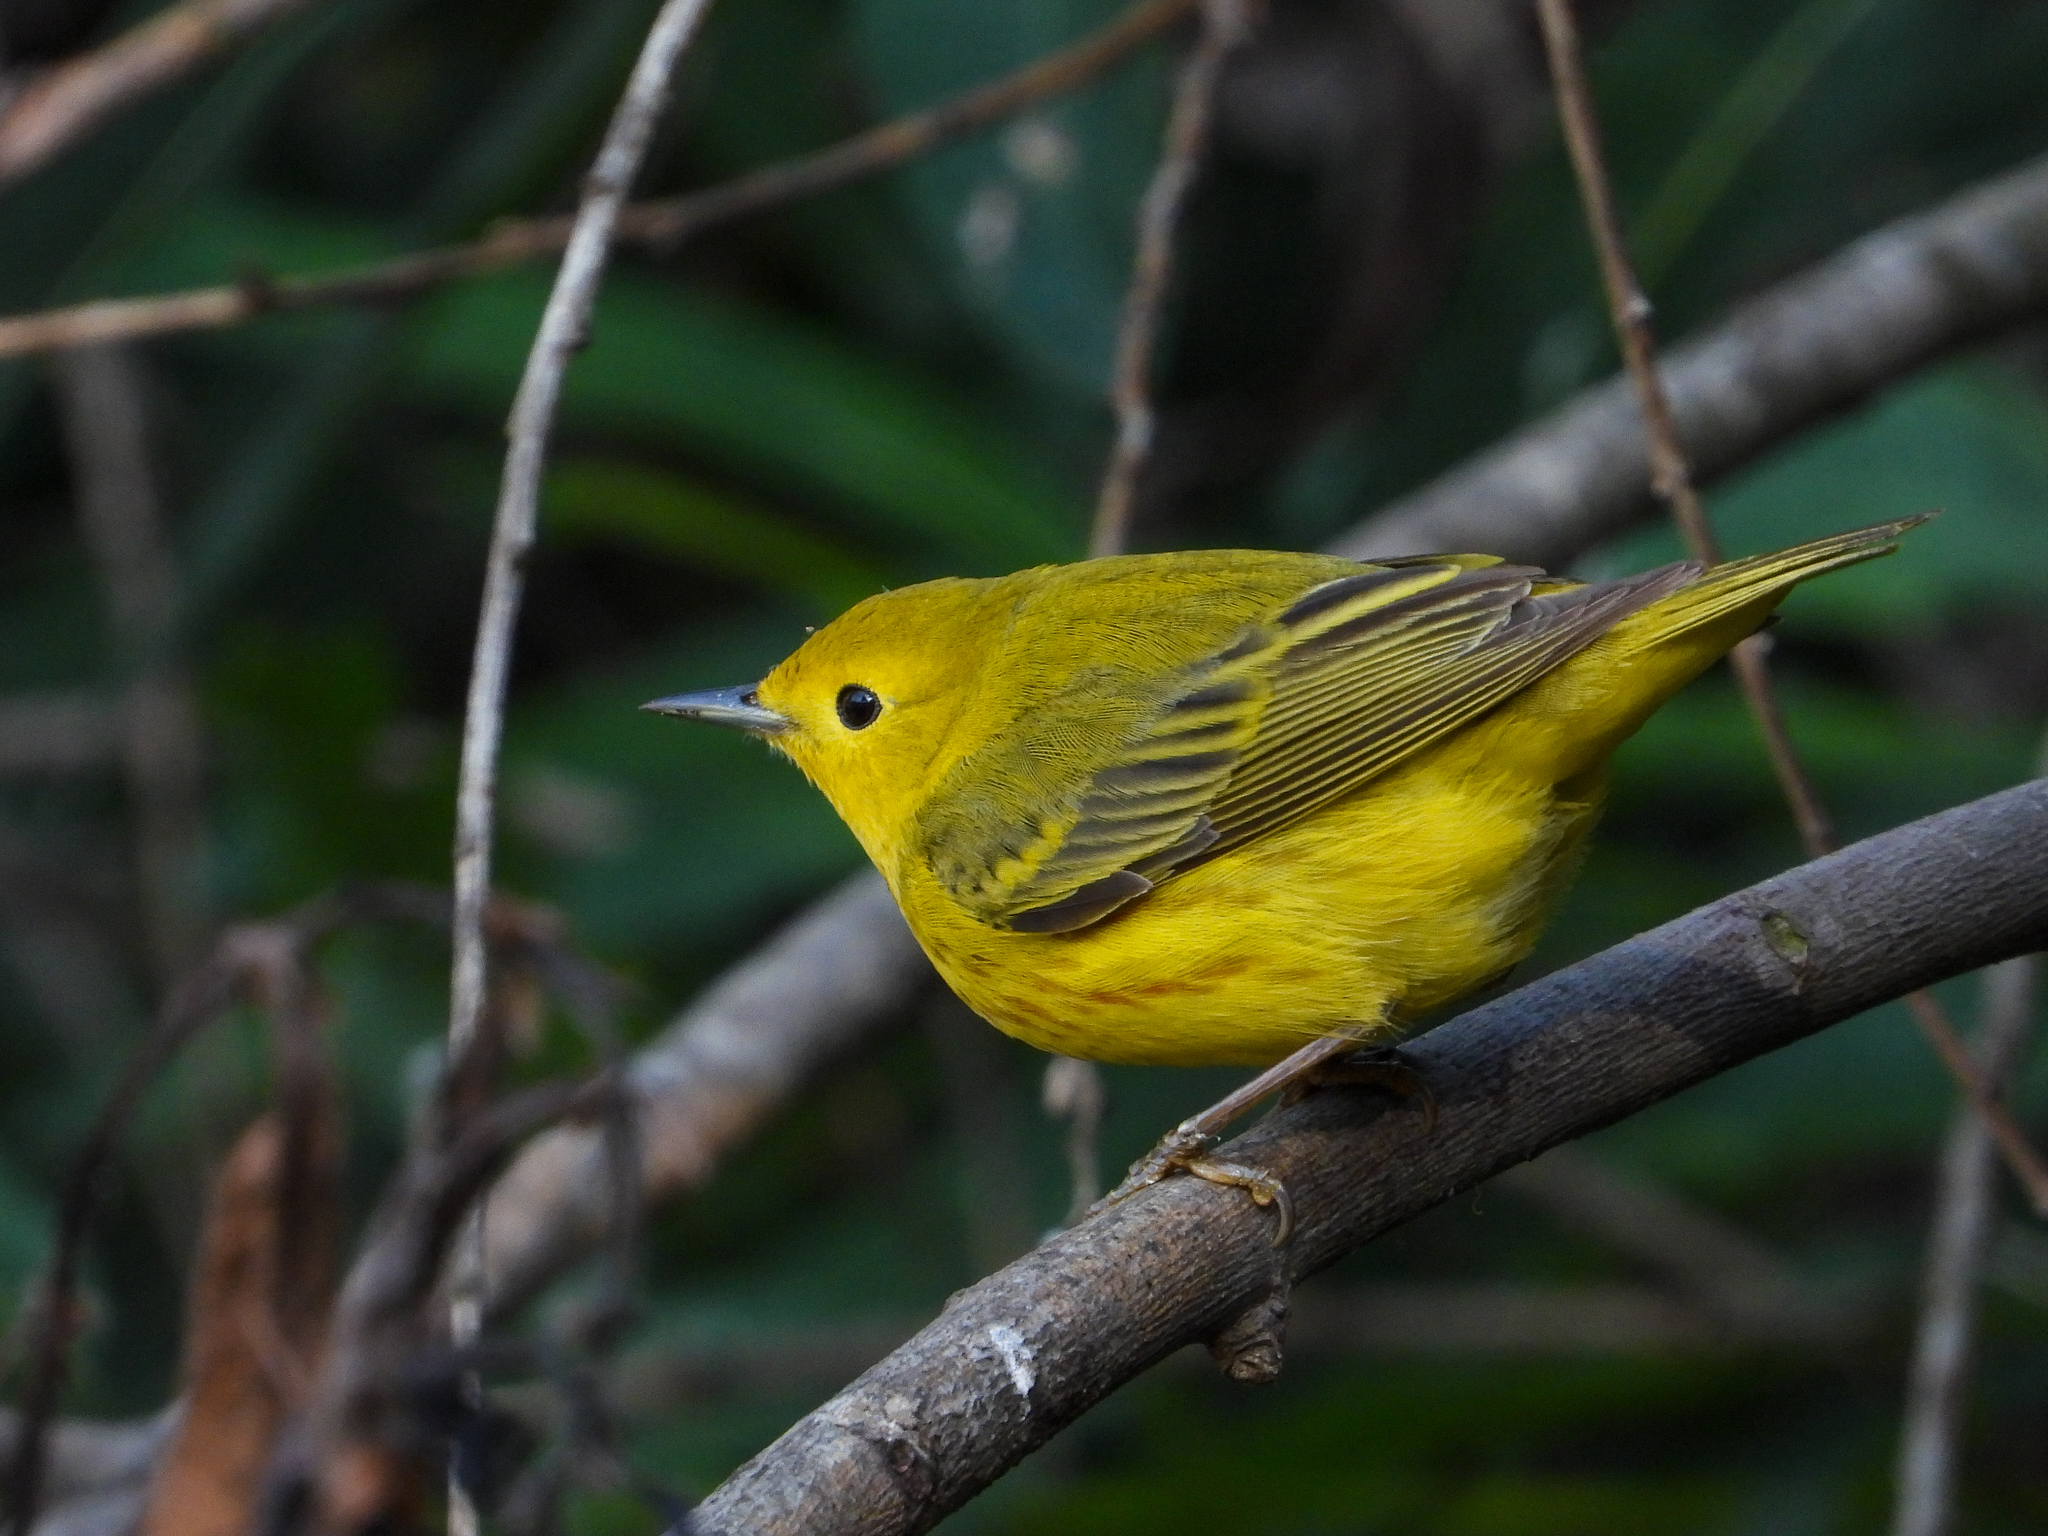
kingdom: Animalia
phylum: Chordata
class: Aves
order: Passeriformes
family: Parulidae
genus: Setophaga
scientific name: Setophaga petechia
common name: Yellow warbler
